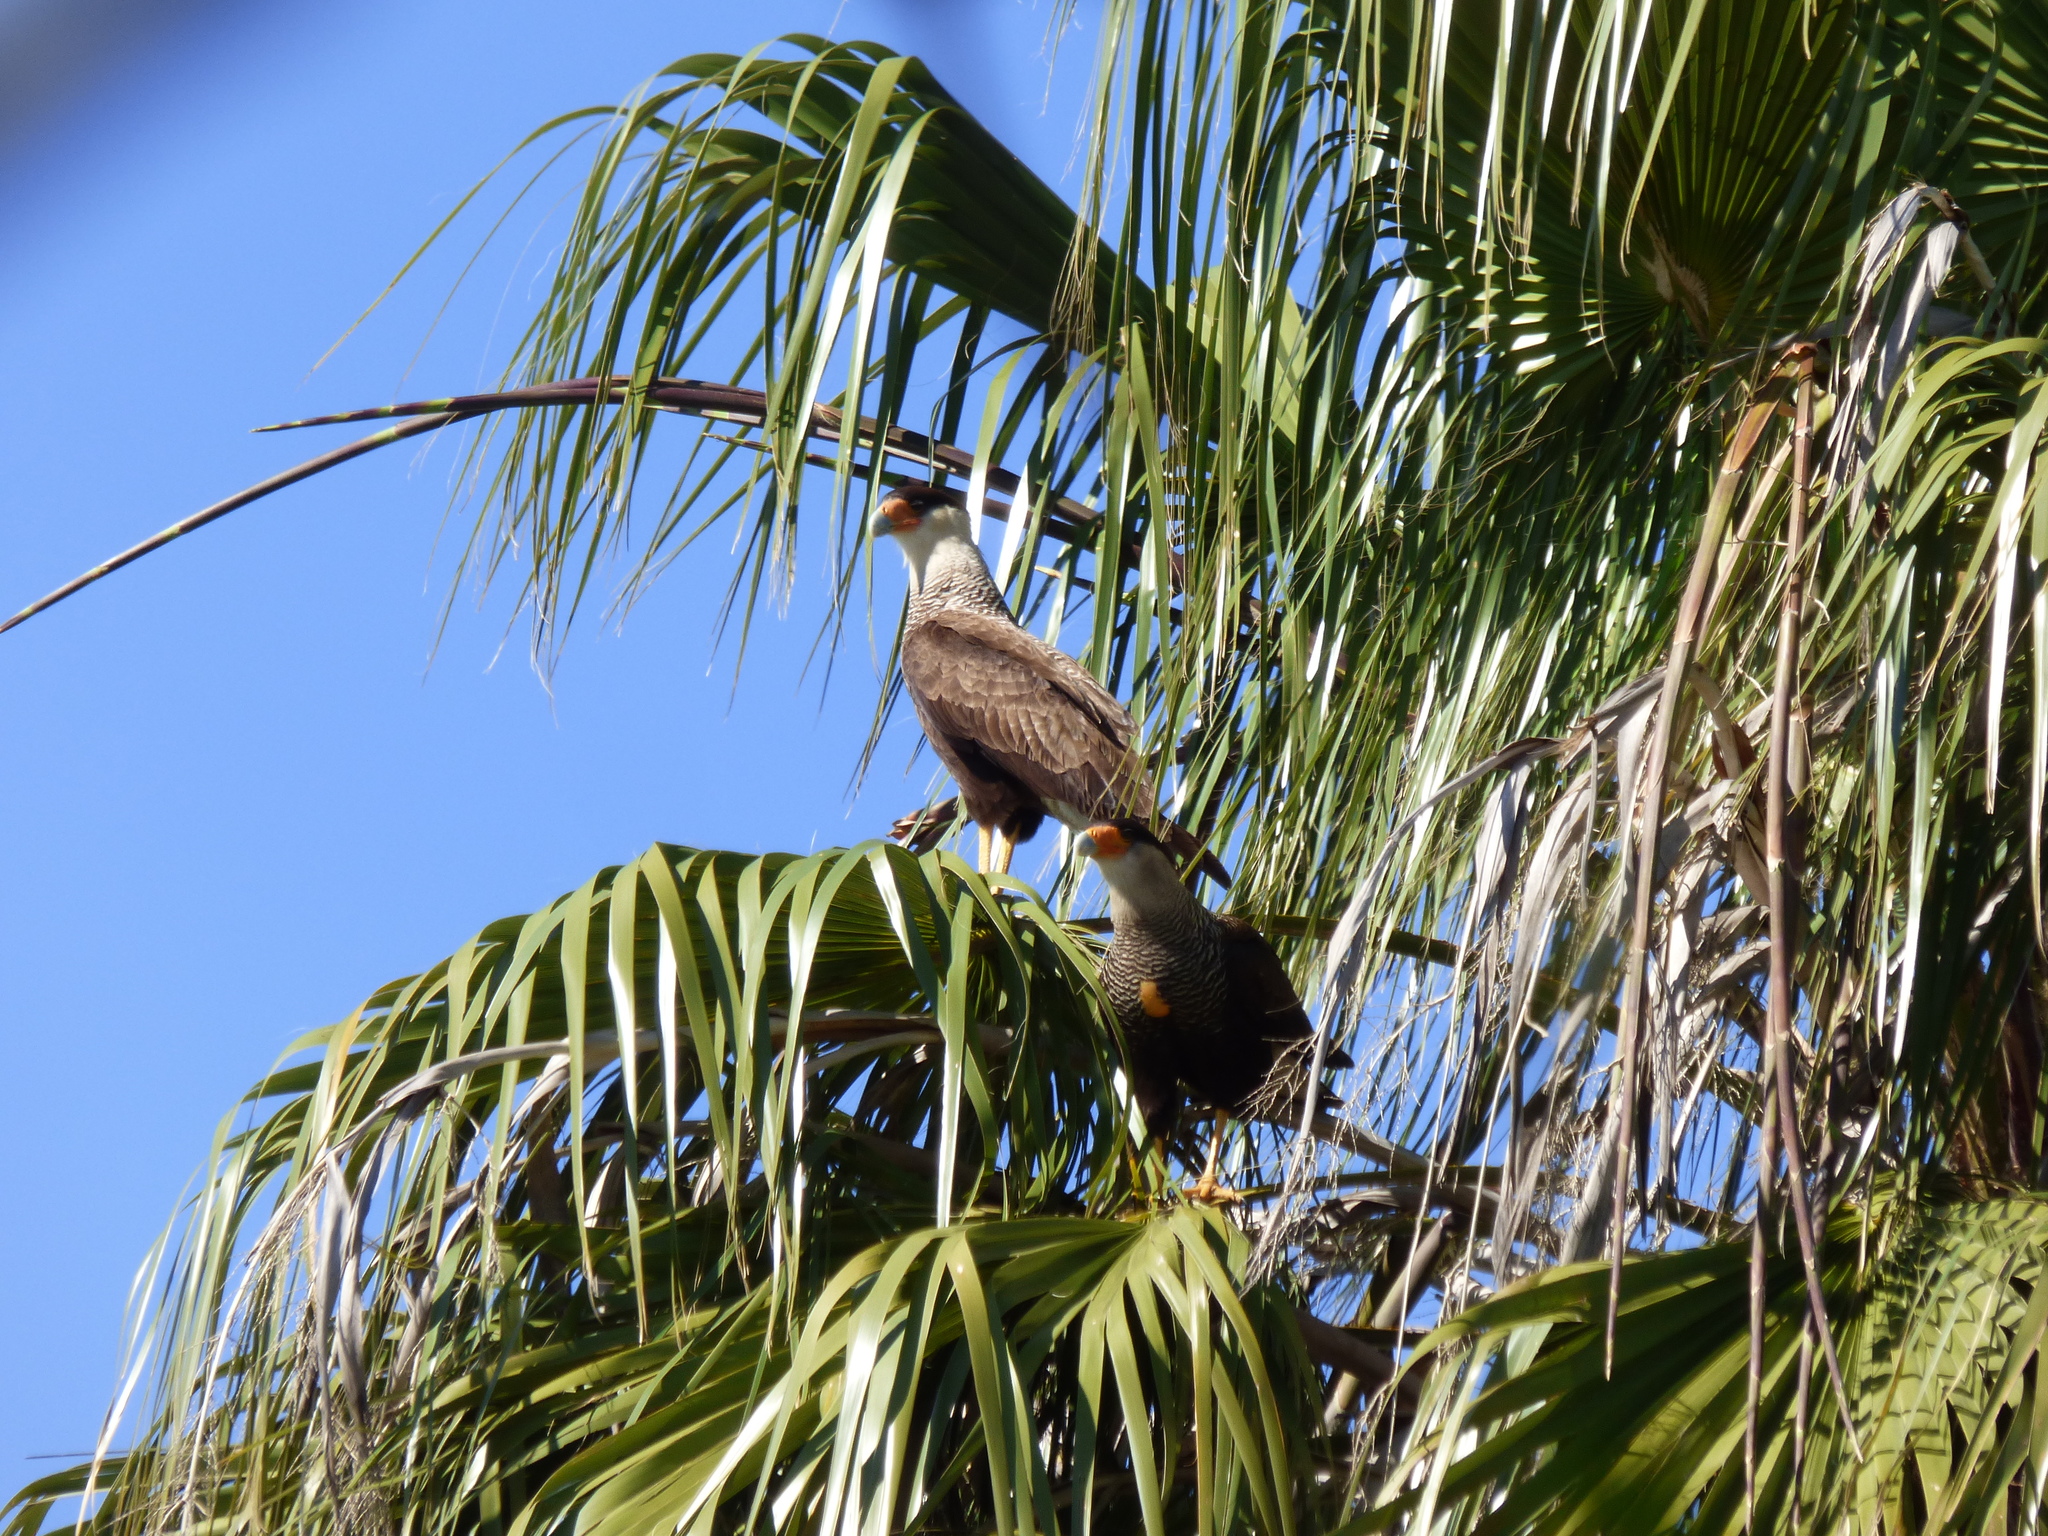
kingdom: Animalia
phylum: Chordata
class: Aves
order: Falconiformes
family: Falconidae
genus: Caracara
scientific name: Caracara plancus
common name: Southern caracara
